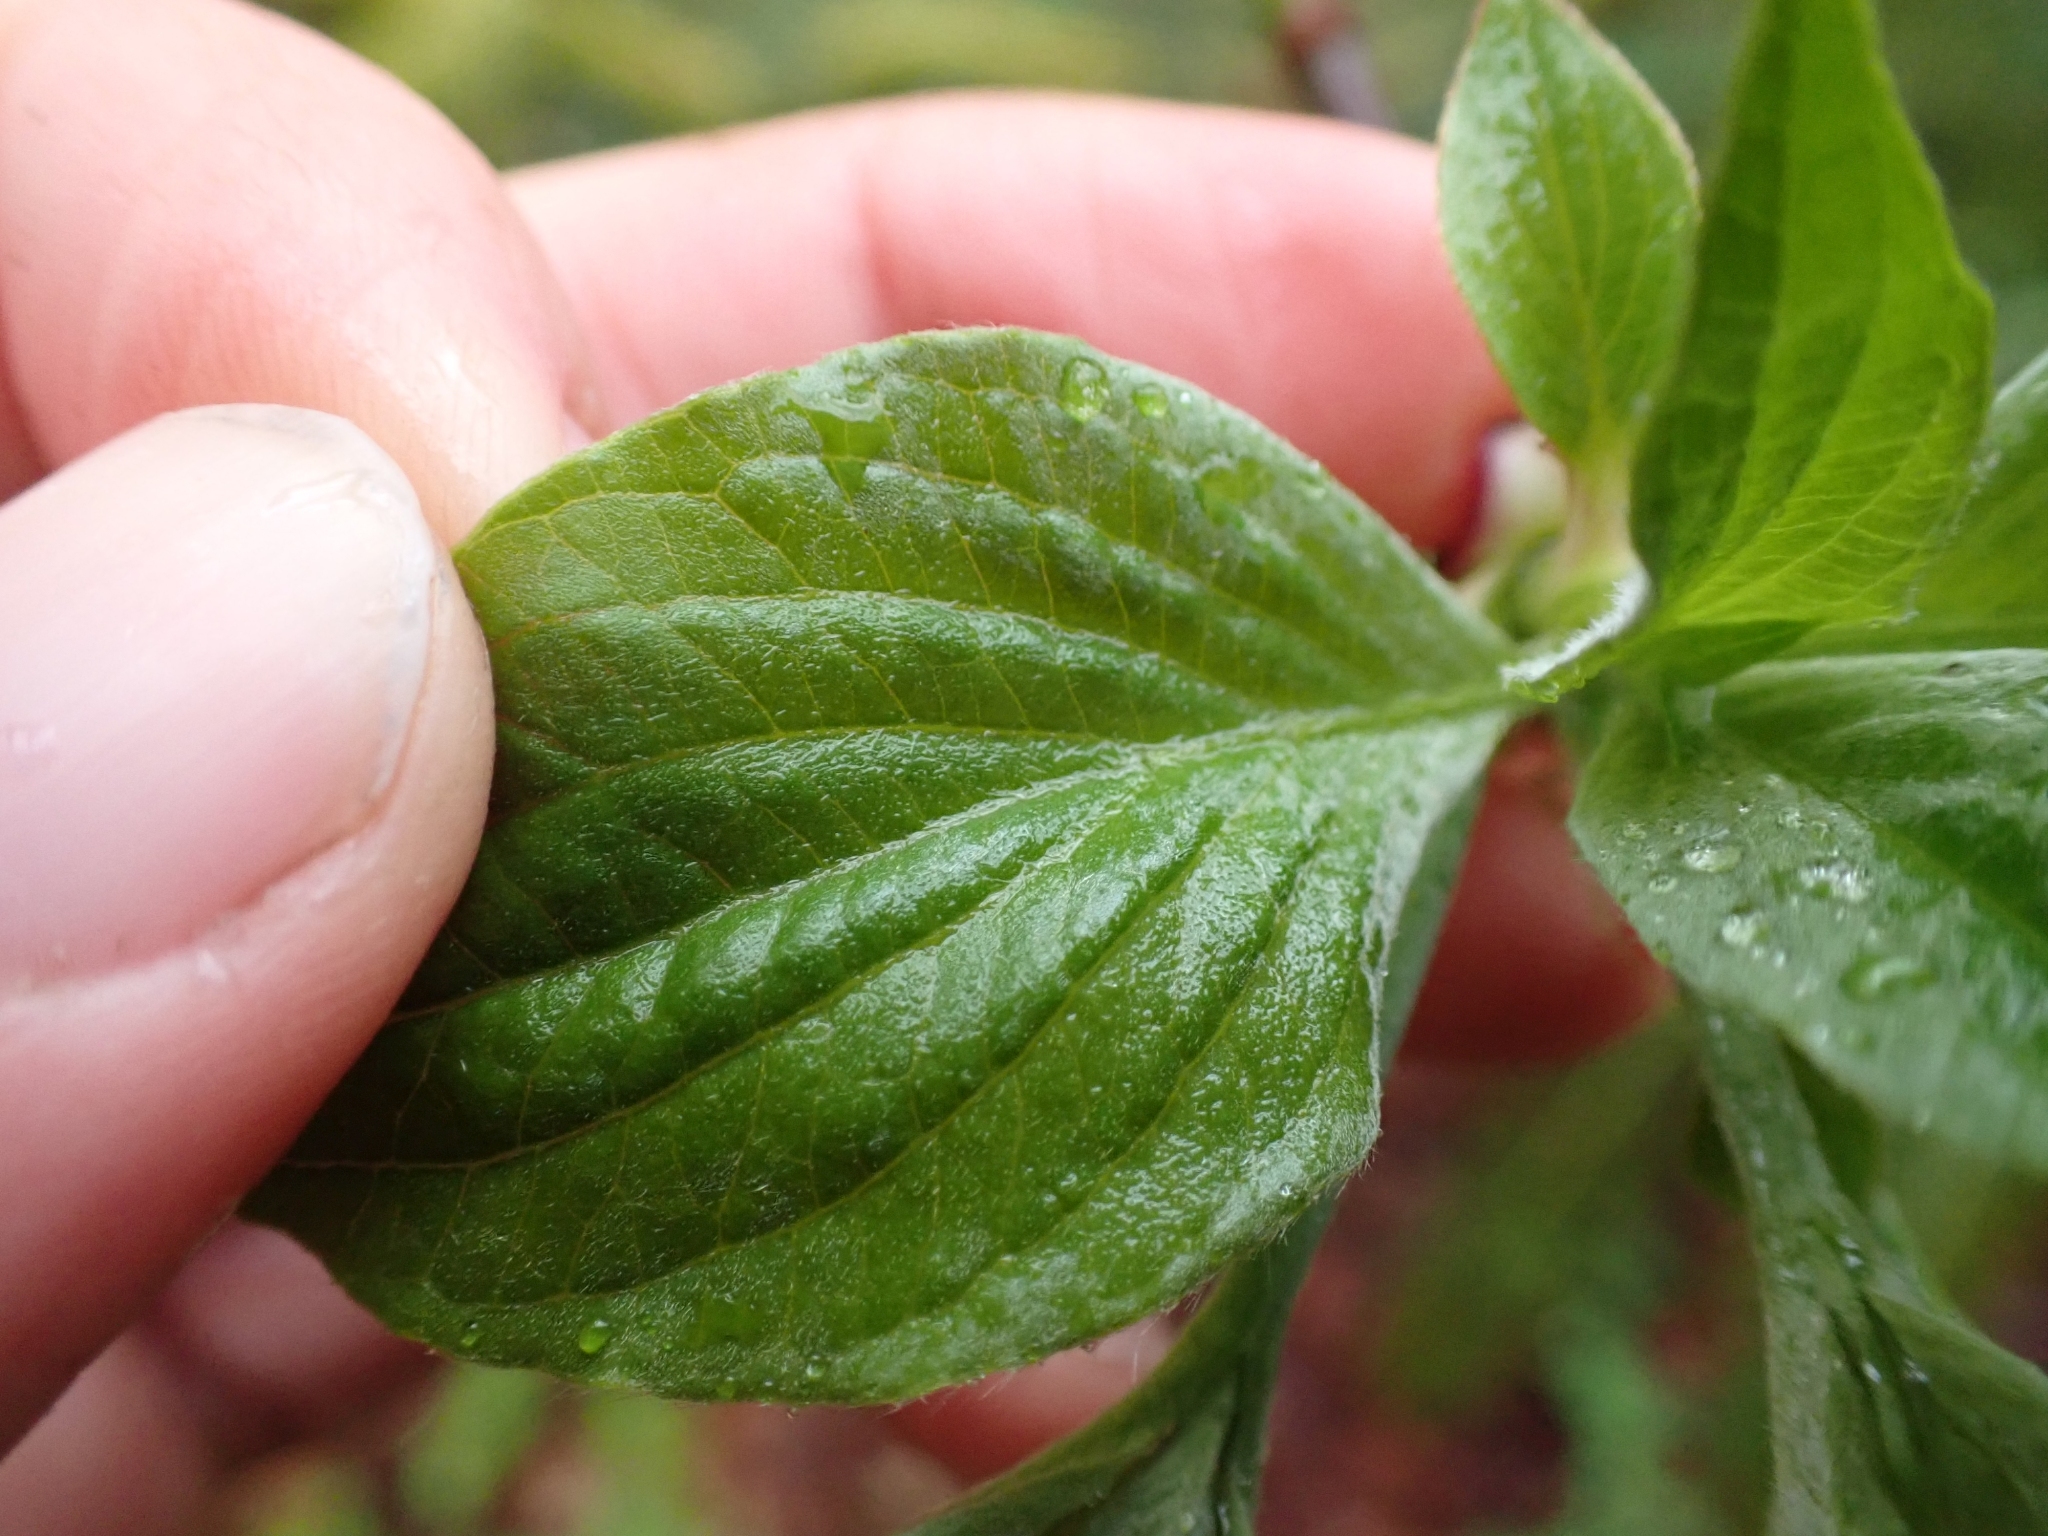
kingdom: Plantae
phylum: Tracheophyta
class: Magnoliopsida
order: Cornales
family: Cornaceae
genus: Cornus
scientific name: Cornus nuttallii
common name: Pacific dogwood
